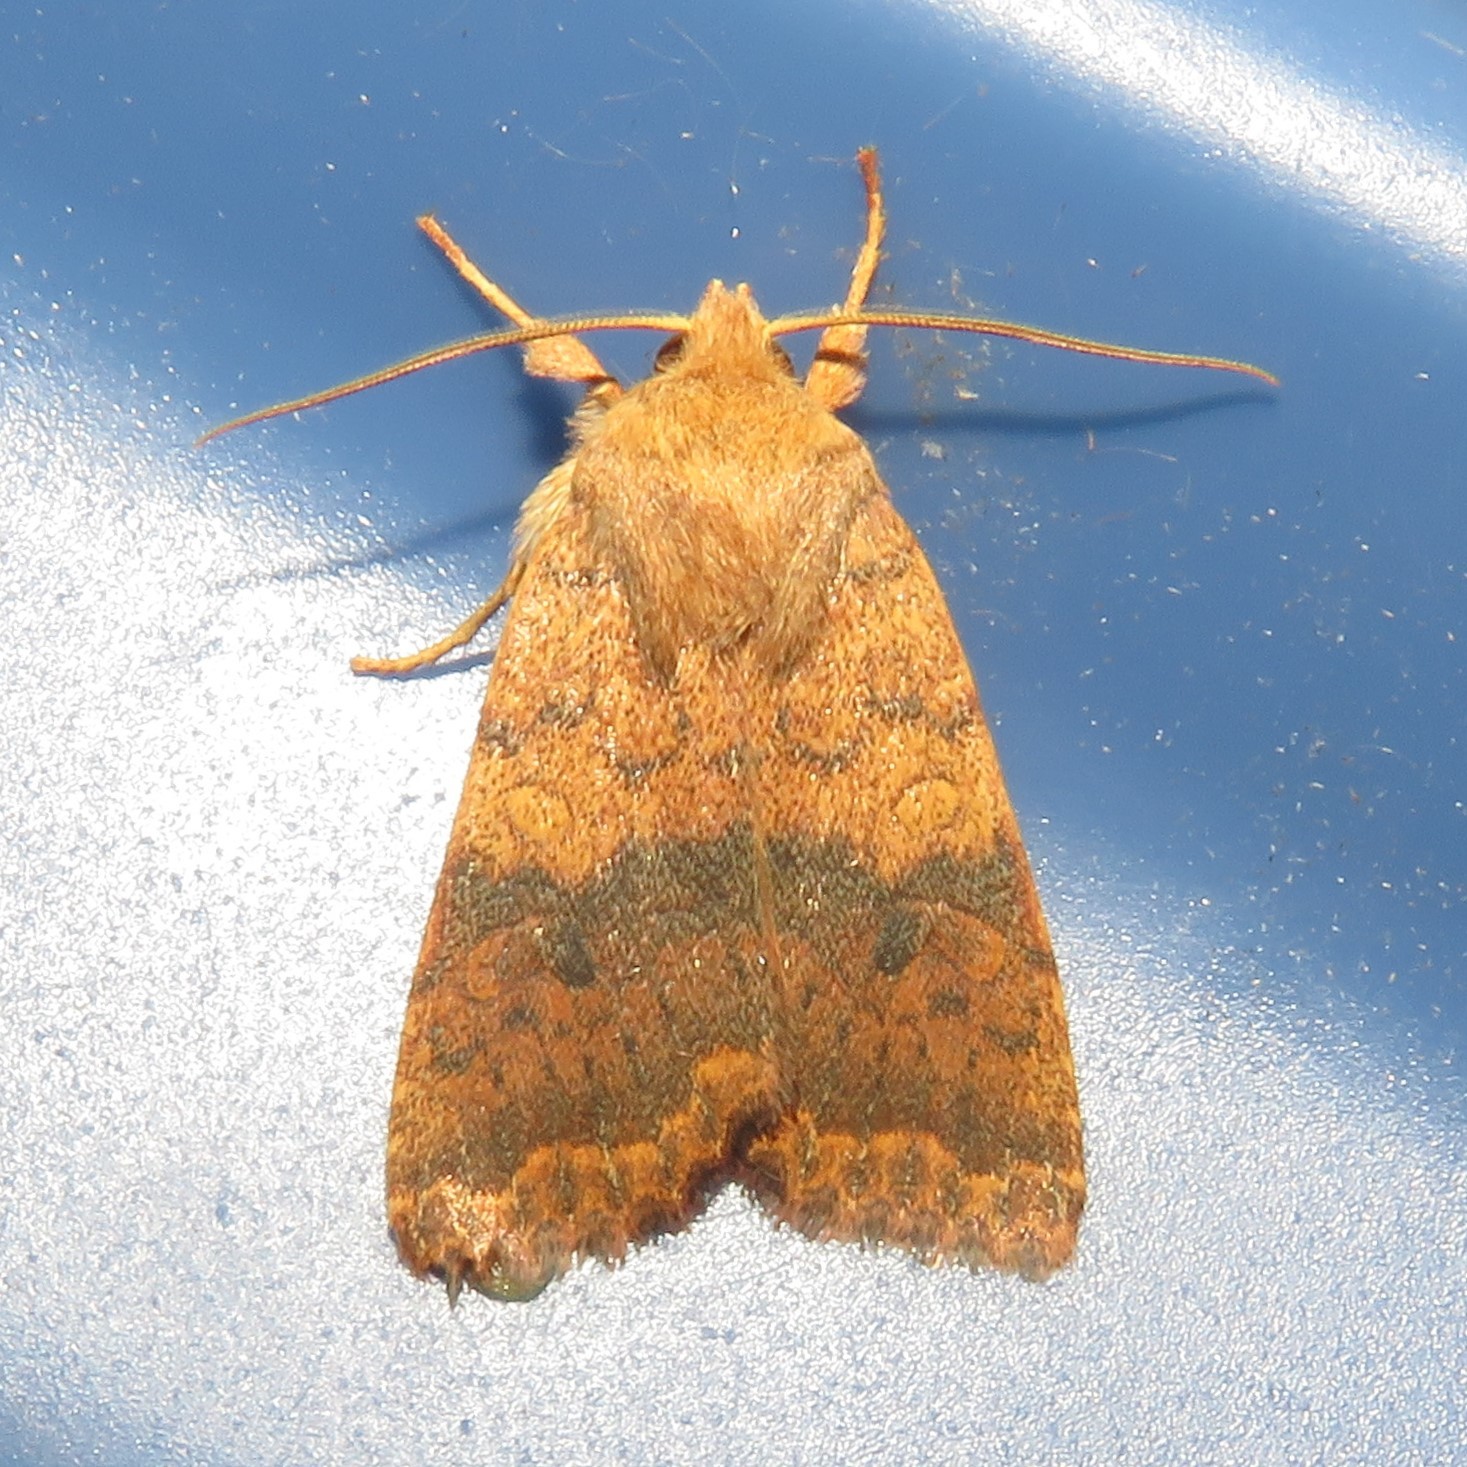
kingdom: Animalia
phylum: Arthropoda
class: Insecta
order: Lepidoptera
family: Noctuidae
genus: Agrochola
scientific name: Agrochola bicolorago
